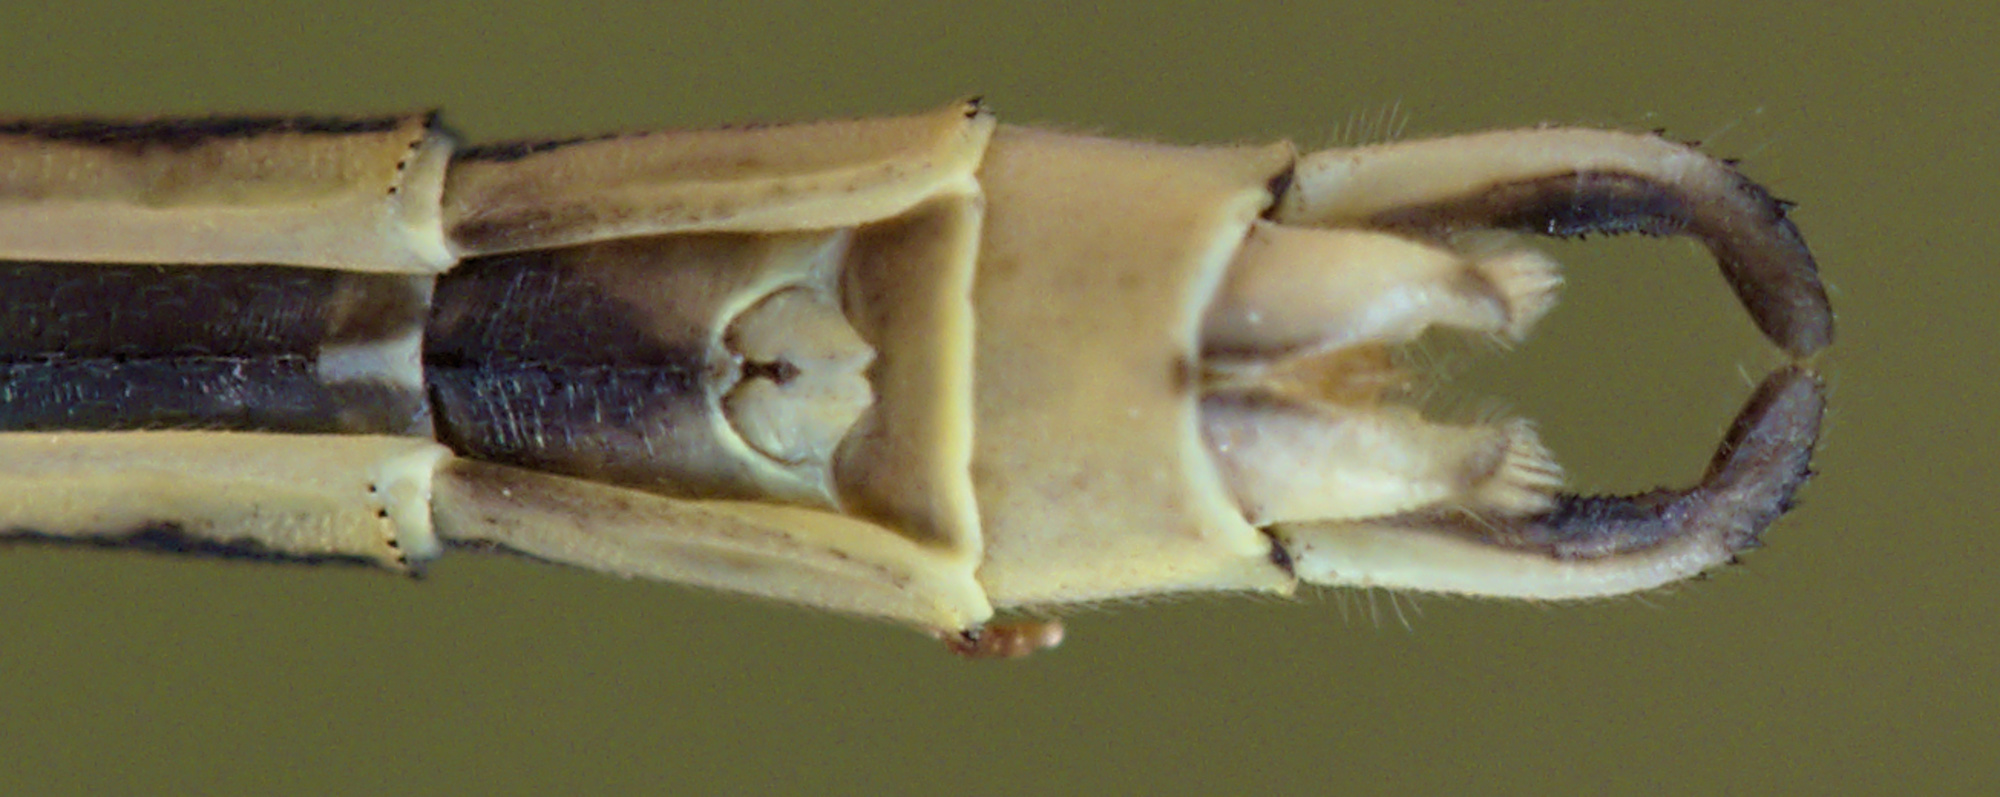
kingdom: Animalia
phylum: Arthropoda
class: Insecta
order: Odonata
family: Lestidae
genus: Lestes
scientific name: Lestes virens
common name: Small emerald spreadwing
